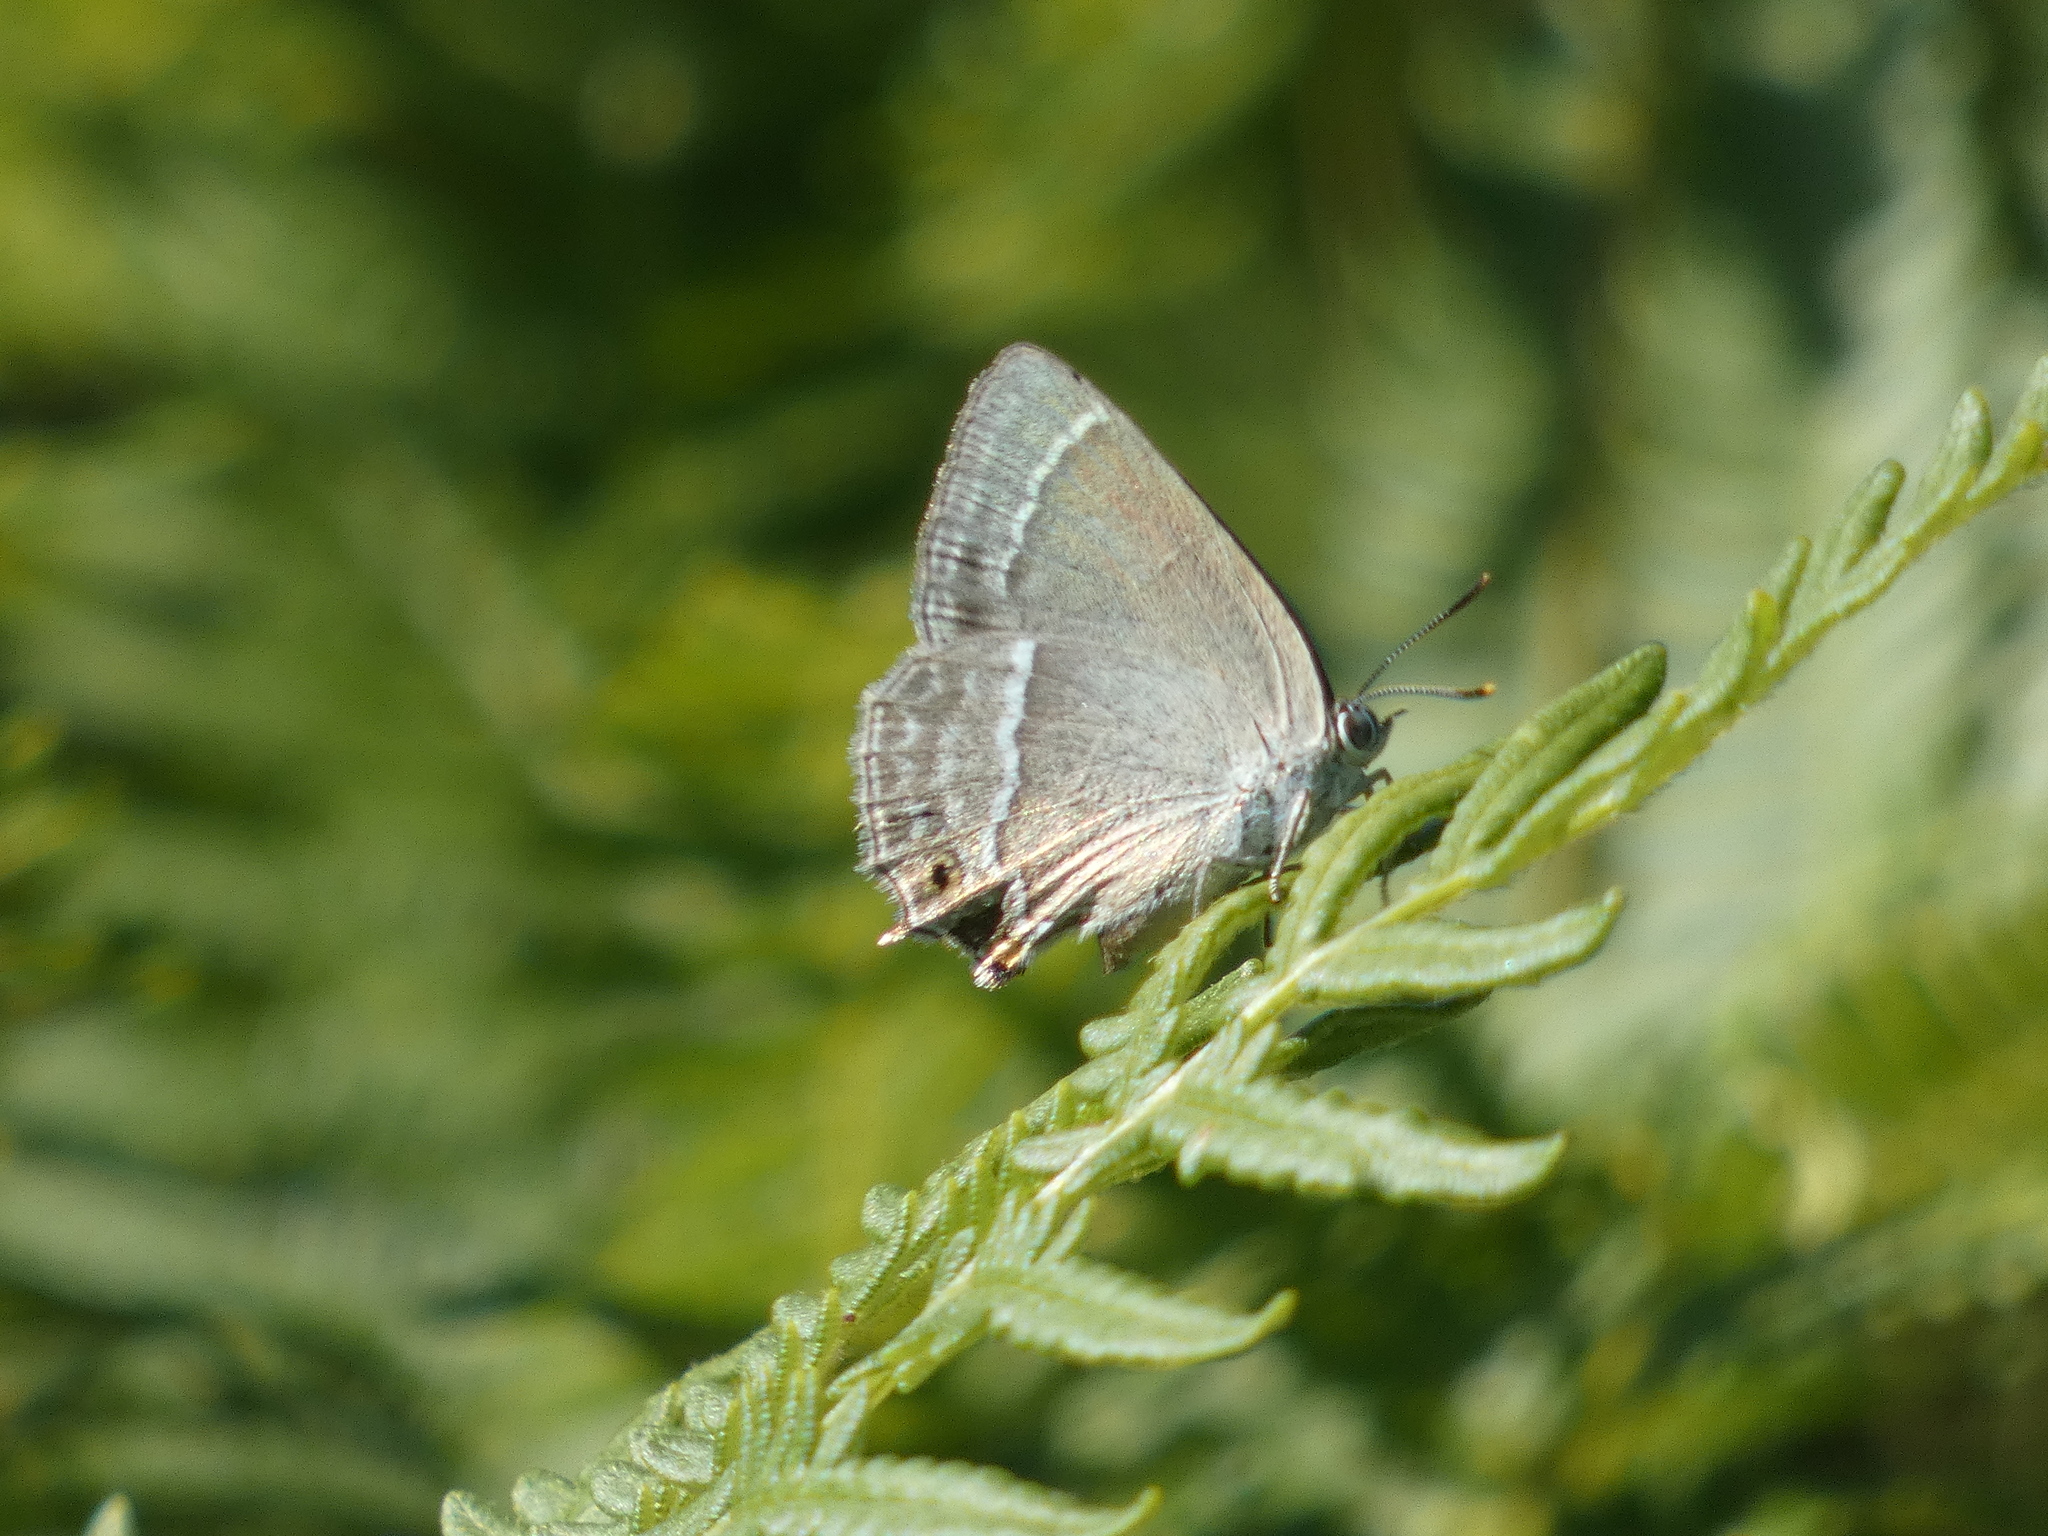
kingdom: Animalia
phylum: Arthropoda
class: Insecta
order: Lepidoptera
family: Lycaenidae
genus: Quercusia
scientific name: Quercusia quercus
